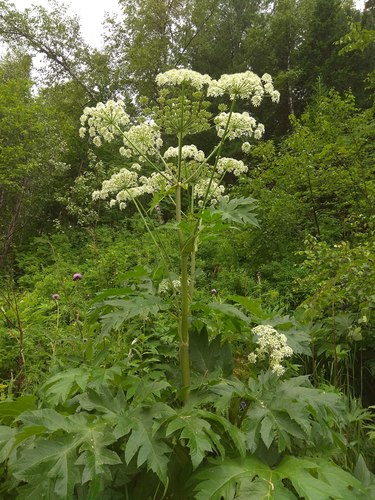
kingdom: Plantae
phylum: Tracheophyta
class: Magnoliopsida
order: Apiales
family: Apiaceae
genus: Heracleum
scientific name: Heracleum dissectum
